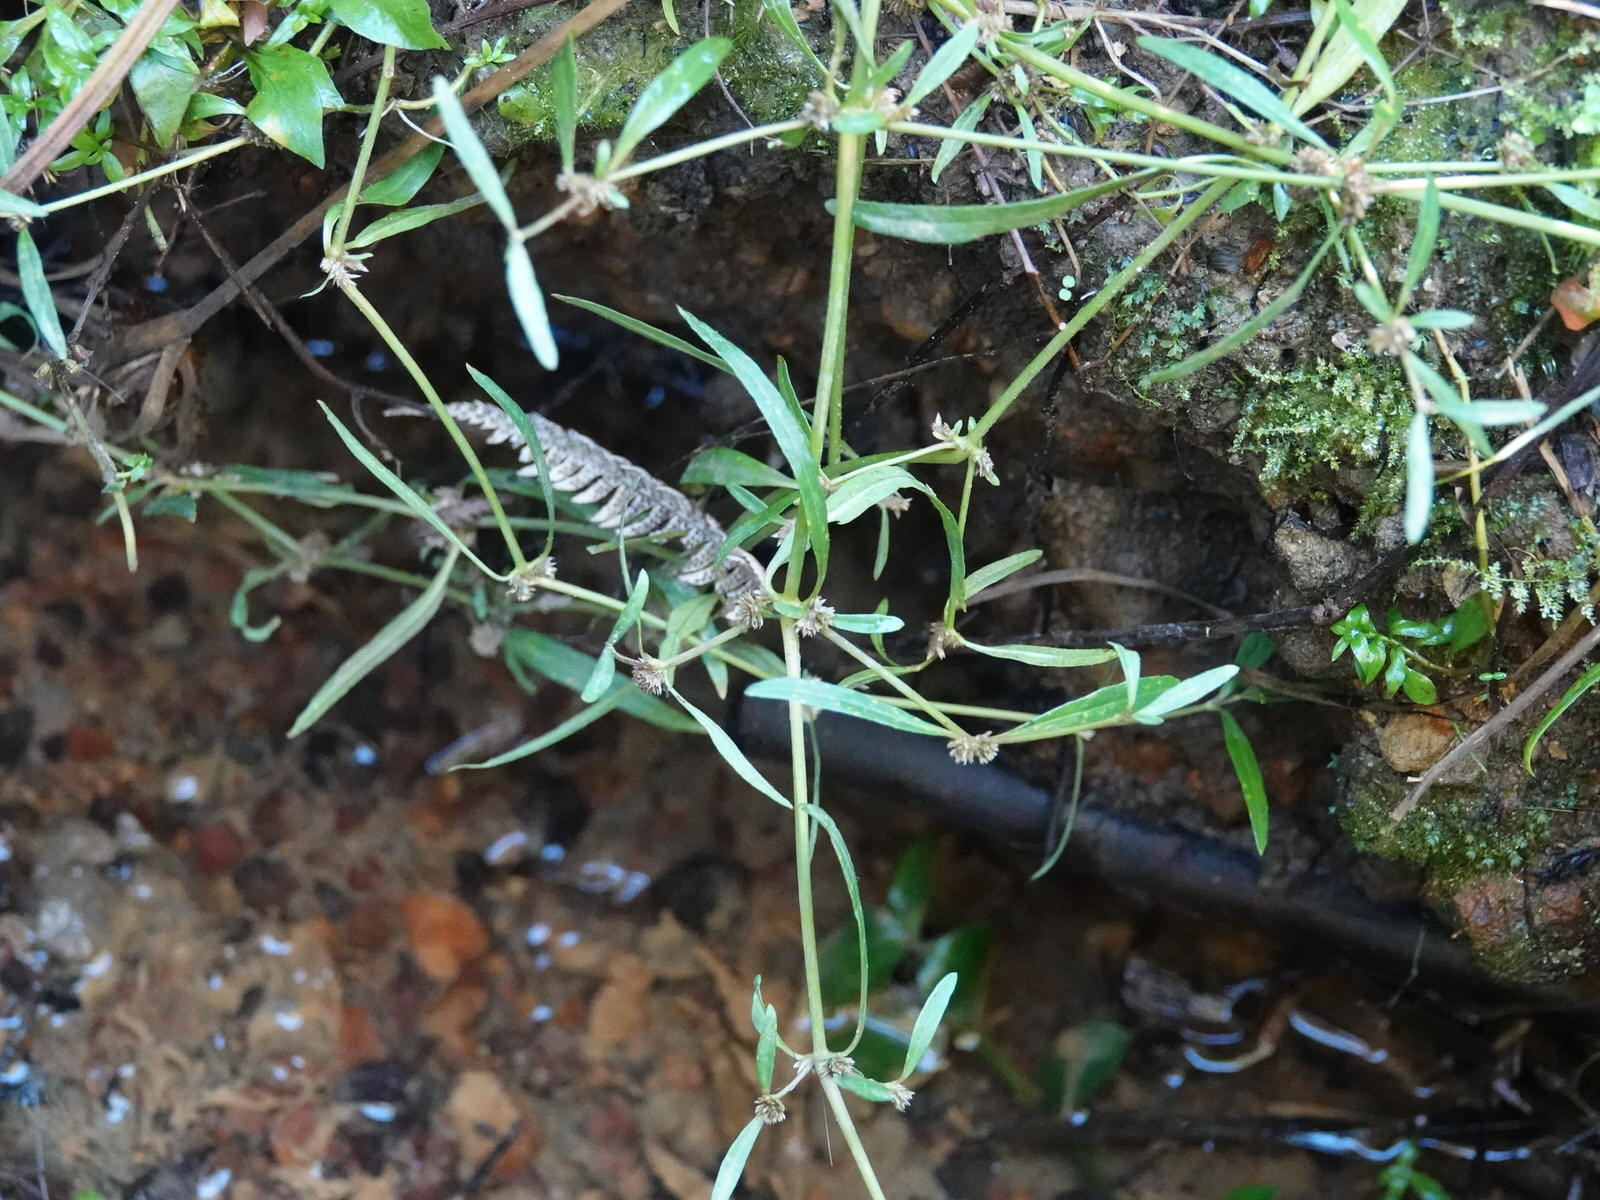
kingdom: Plantae
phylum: Tracheophyta
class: Magnoliopsida
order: Caryophyllales
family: Amaranthaceae
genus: Alternanthera
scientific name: Alternanthera nahui
